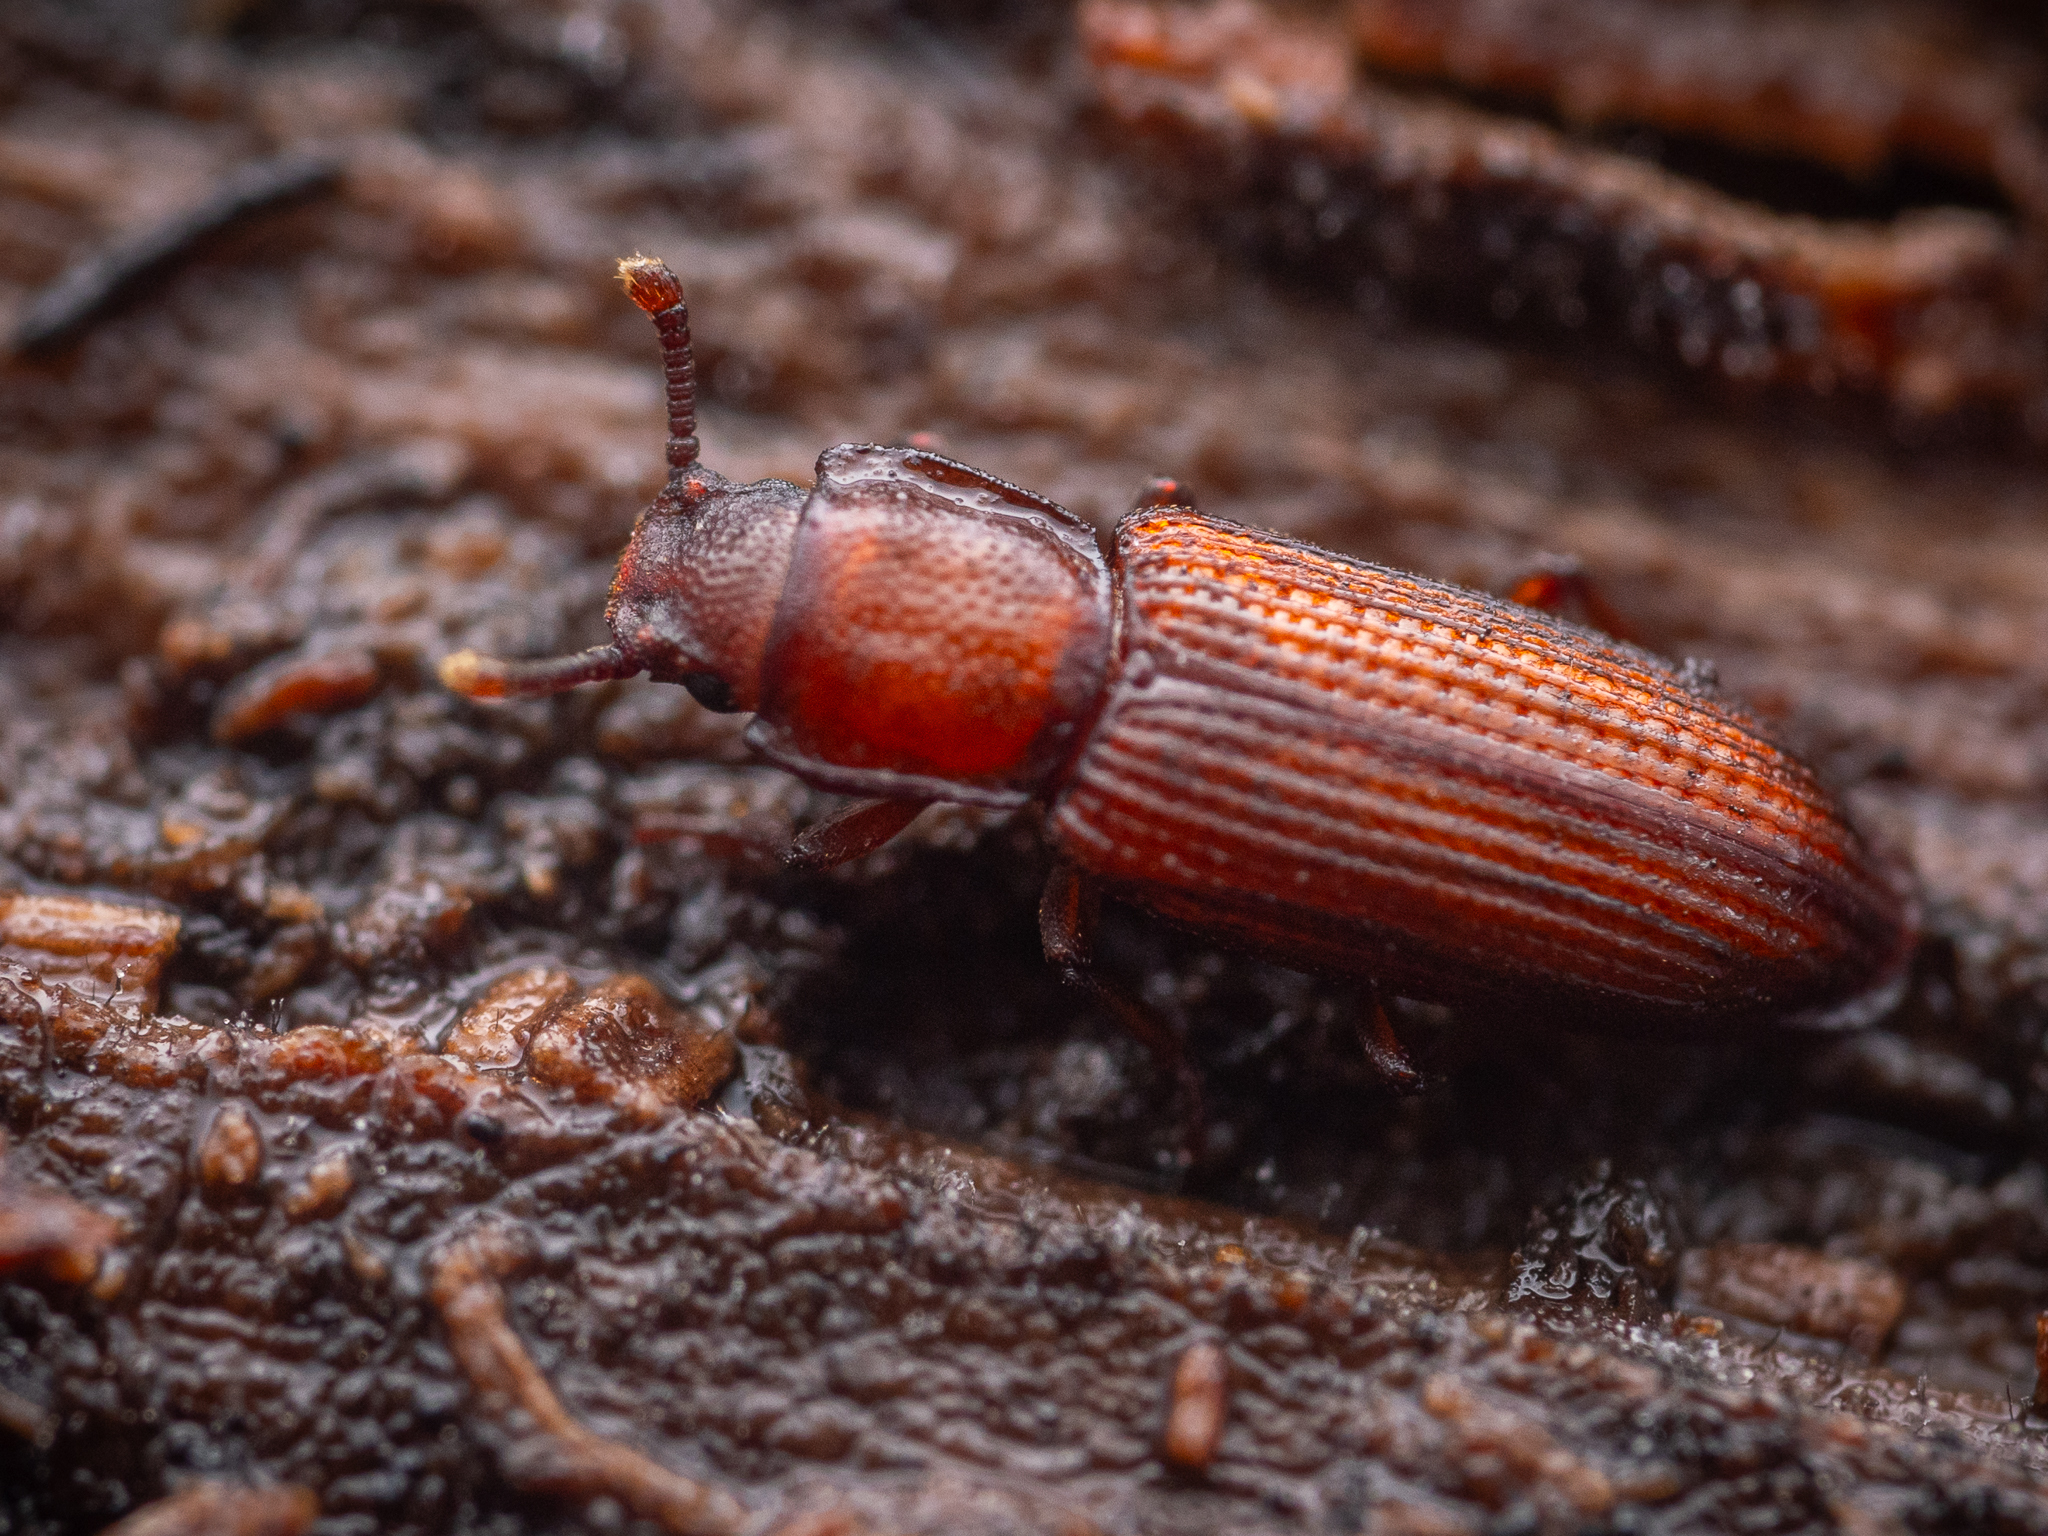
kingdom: Animalia
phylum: Arthropoda
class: Insecta
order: Coleoptera
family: Zopheridae
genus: Pycnomerus
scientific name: Pycnomerus terebrans
